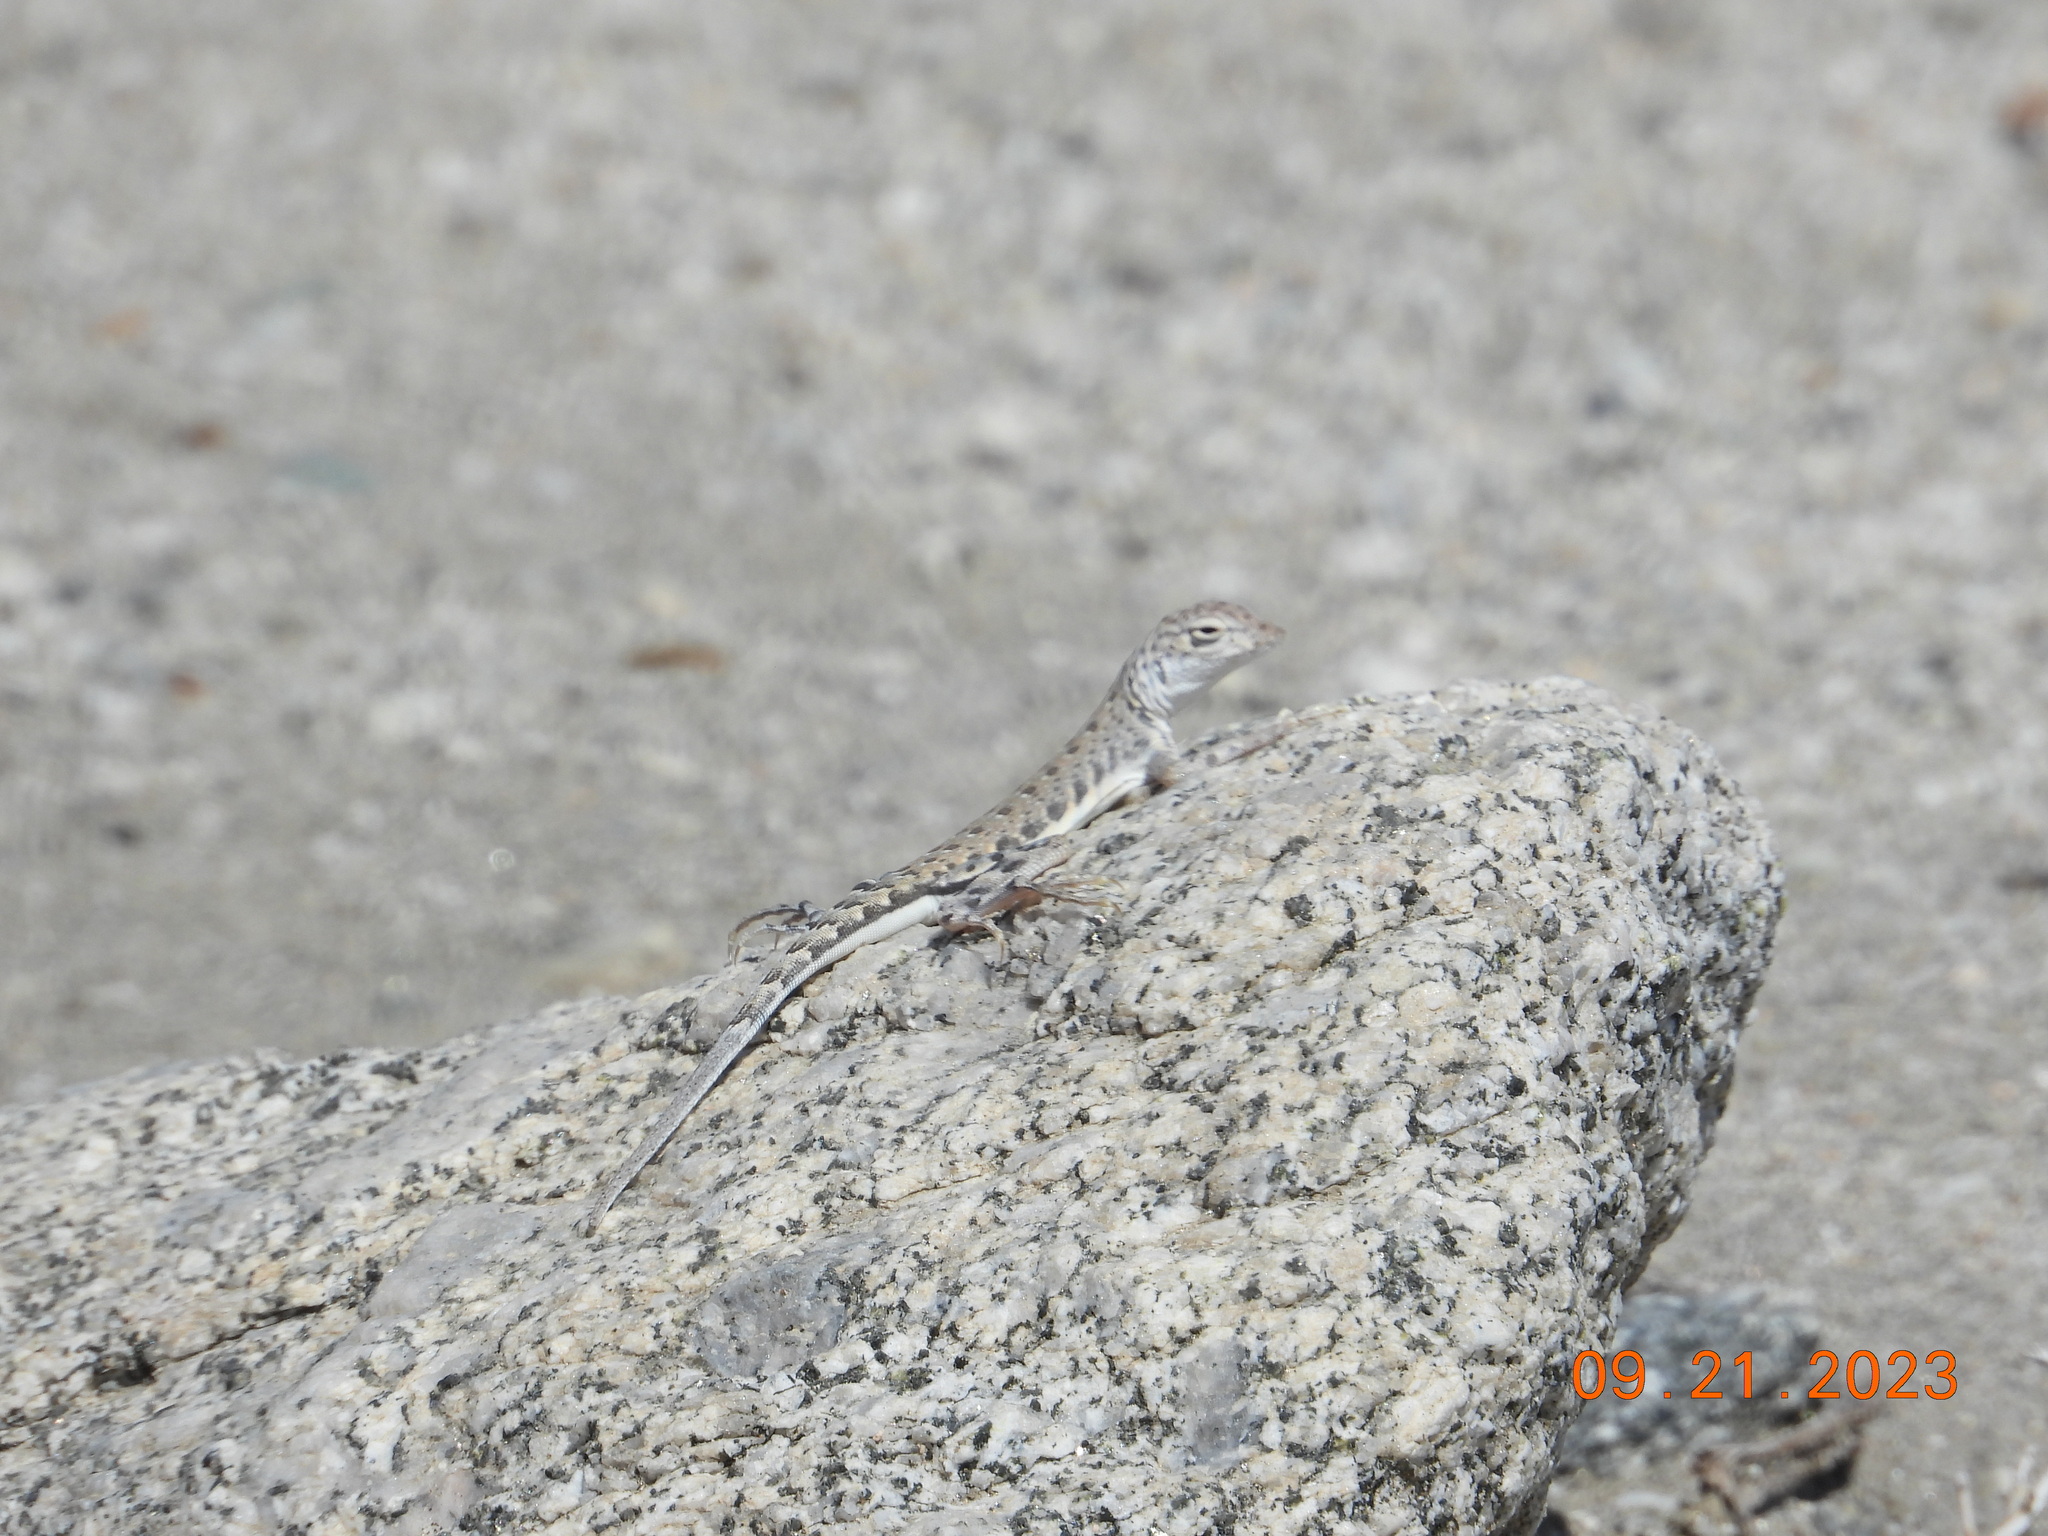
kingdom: Animalia
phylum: Chordata
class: Squamata
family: Phrynosomatidae
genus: Callisaurus
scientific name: Callisaurus draconoides
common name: Zebra-tailed lizard
